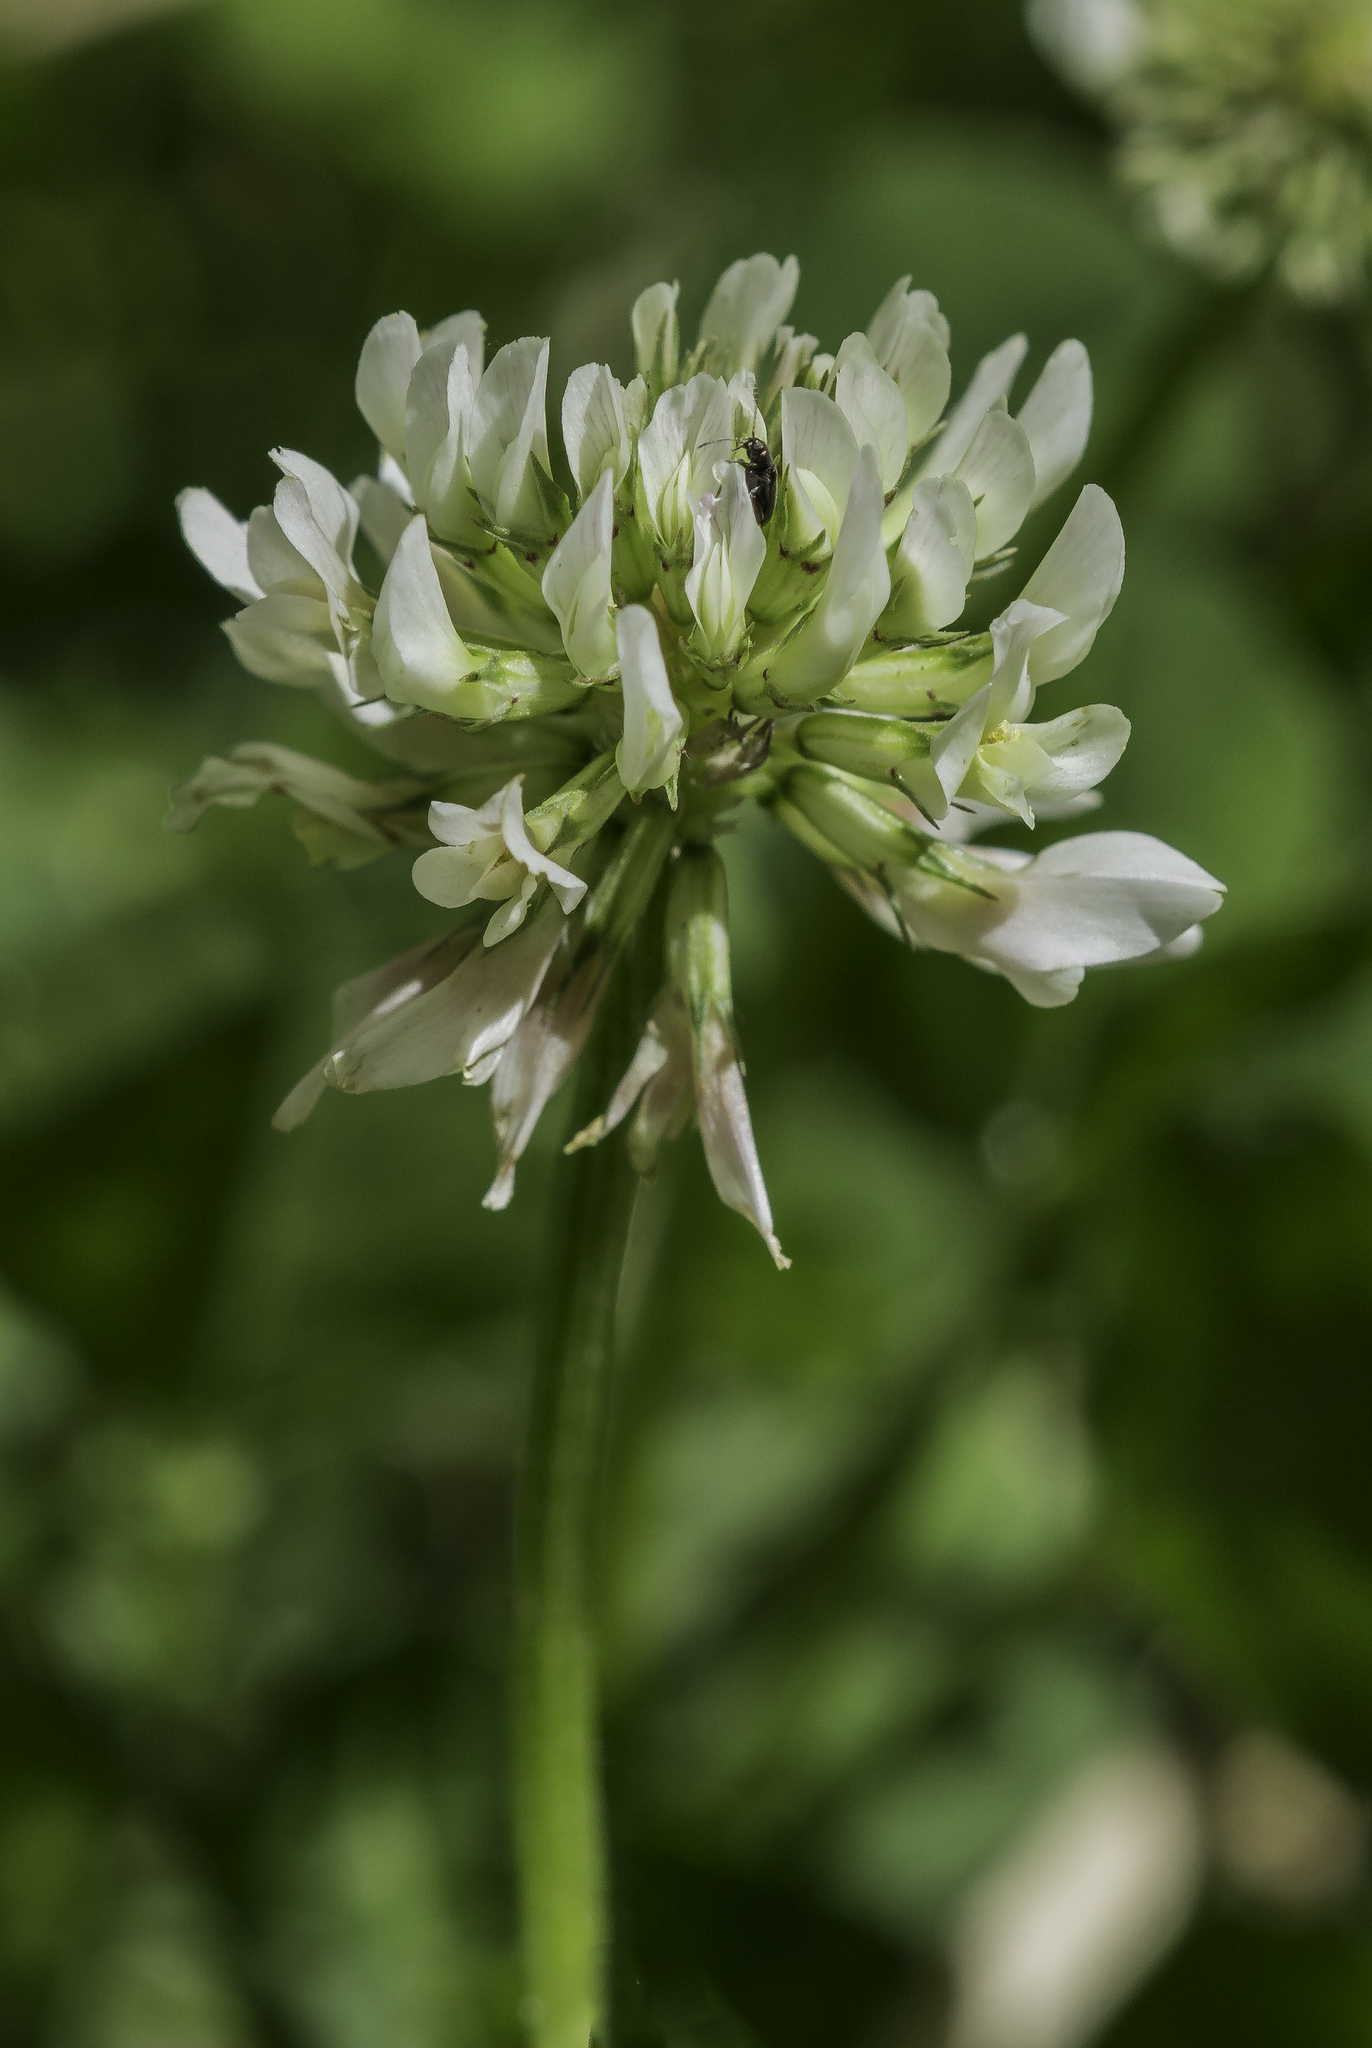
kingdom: Plantae
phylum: Tracheophyta
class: Magnoliopsida
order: Fabales
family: Fabaceae
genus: Trifolium
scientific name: Trifolium repens
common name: White clover
